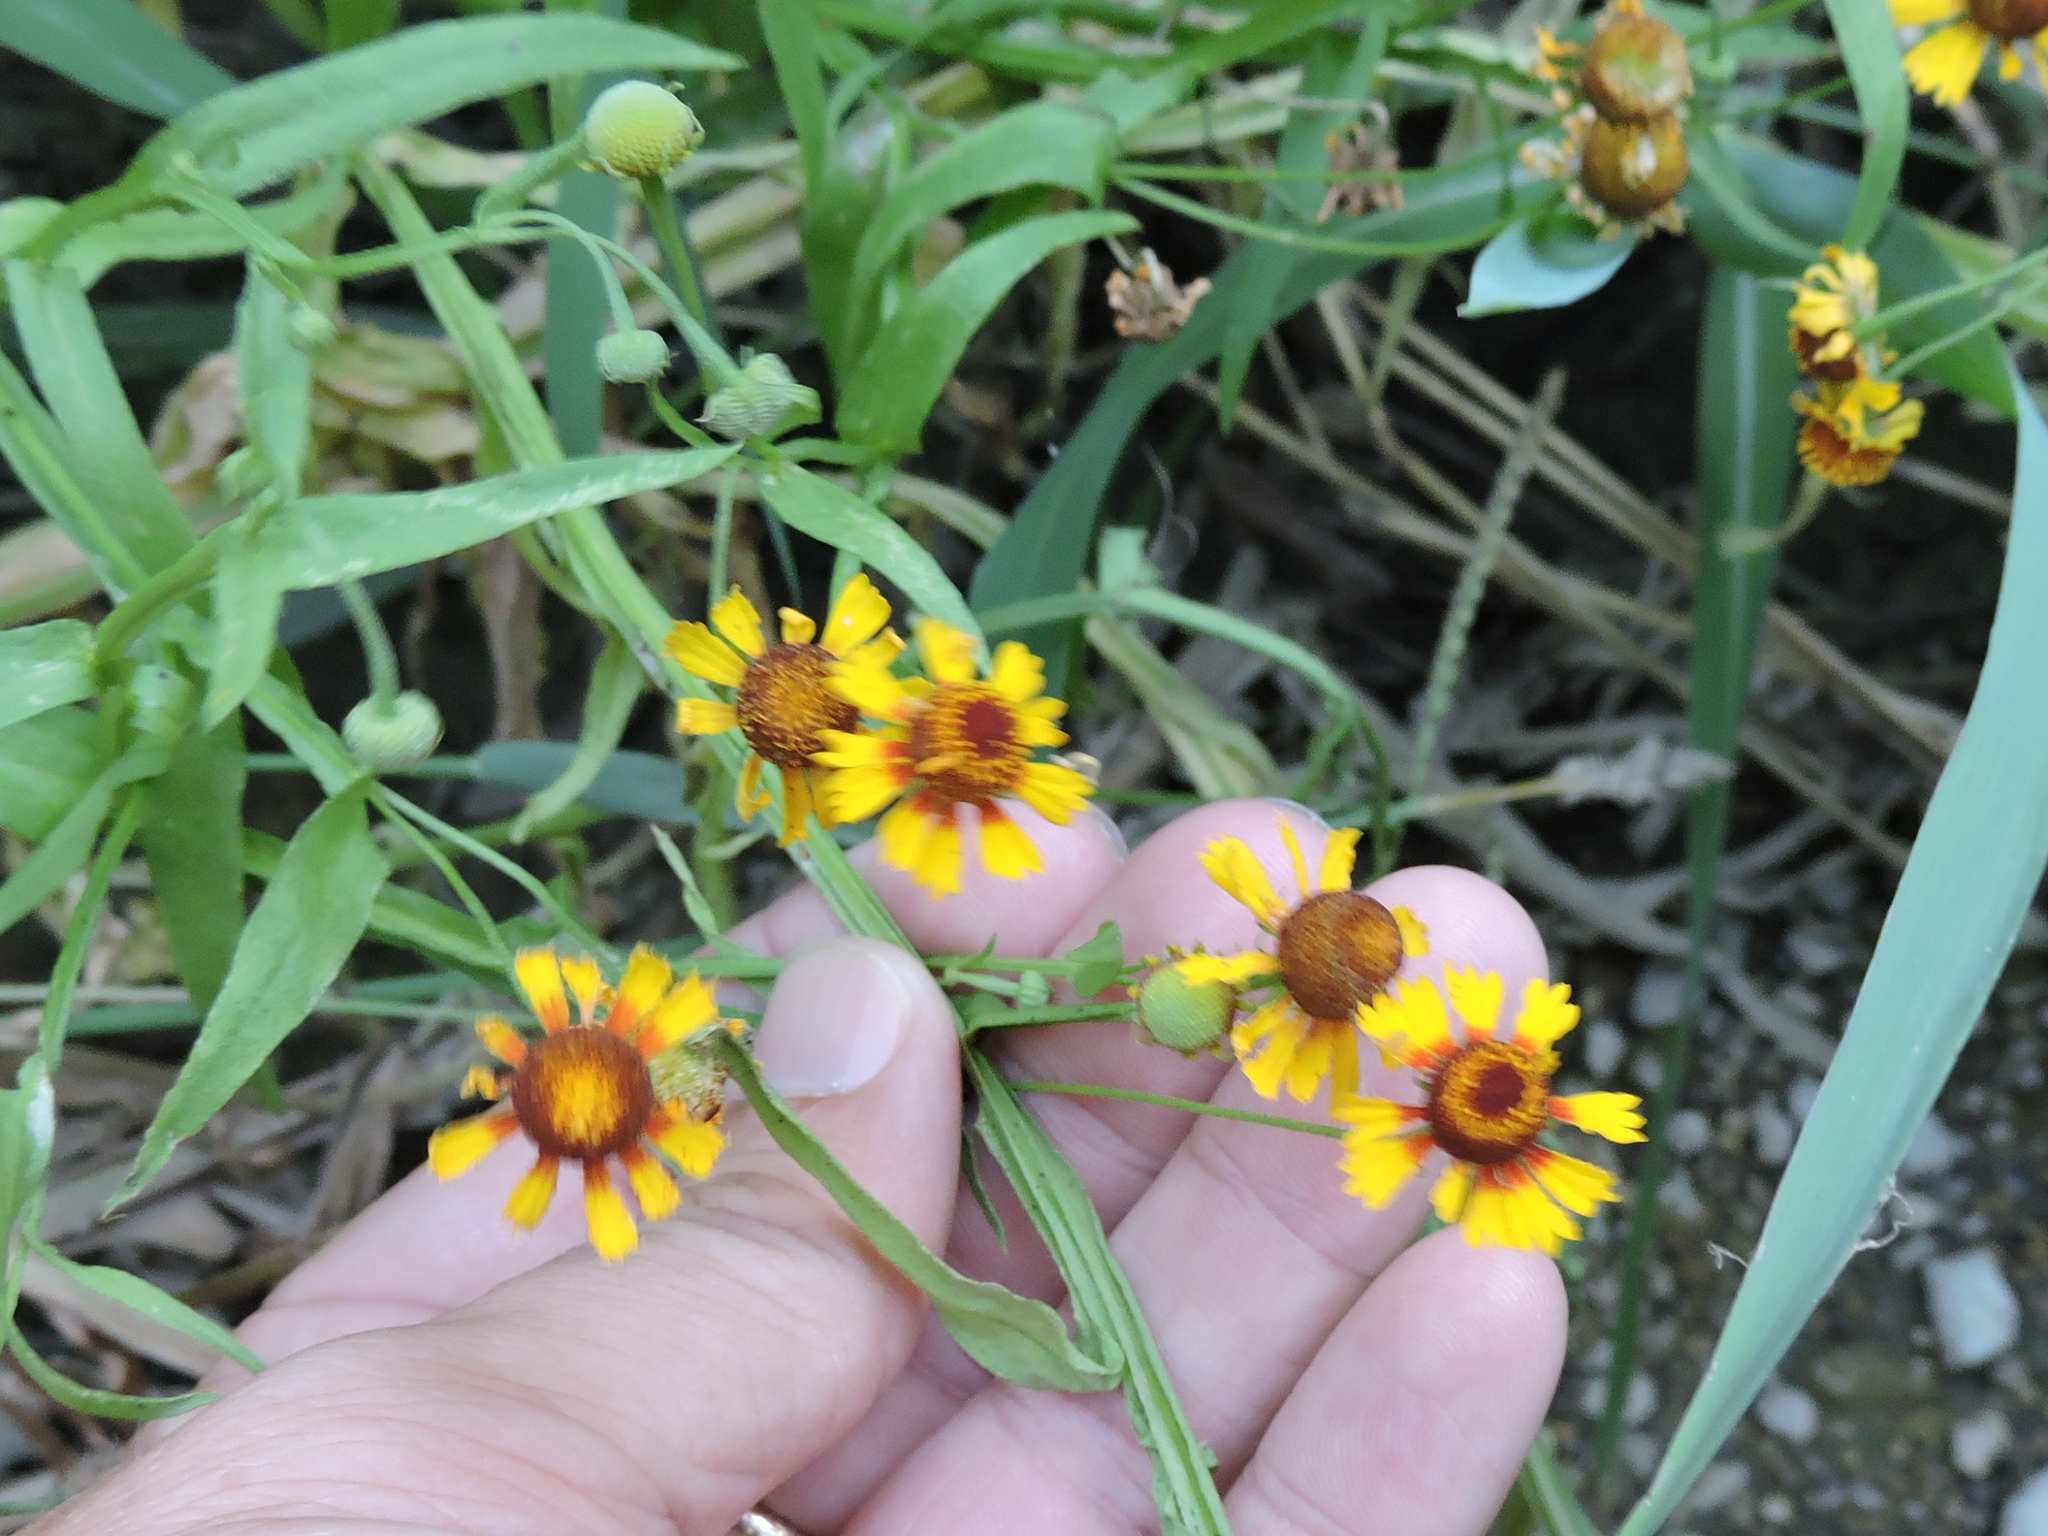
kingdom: Plantae
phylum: Tracheophyta
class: Magnoliopsida
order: Asterales
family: Asteraceae
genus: Helenium
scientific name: Helenium elegans
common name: Pretty sneezeweed
